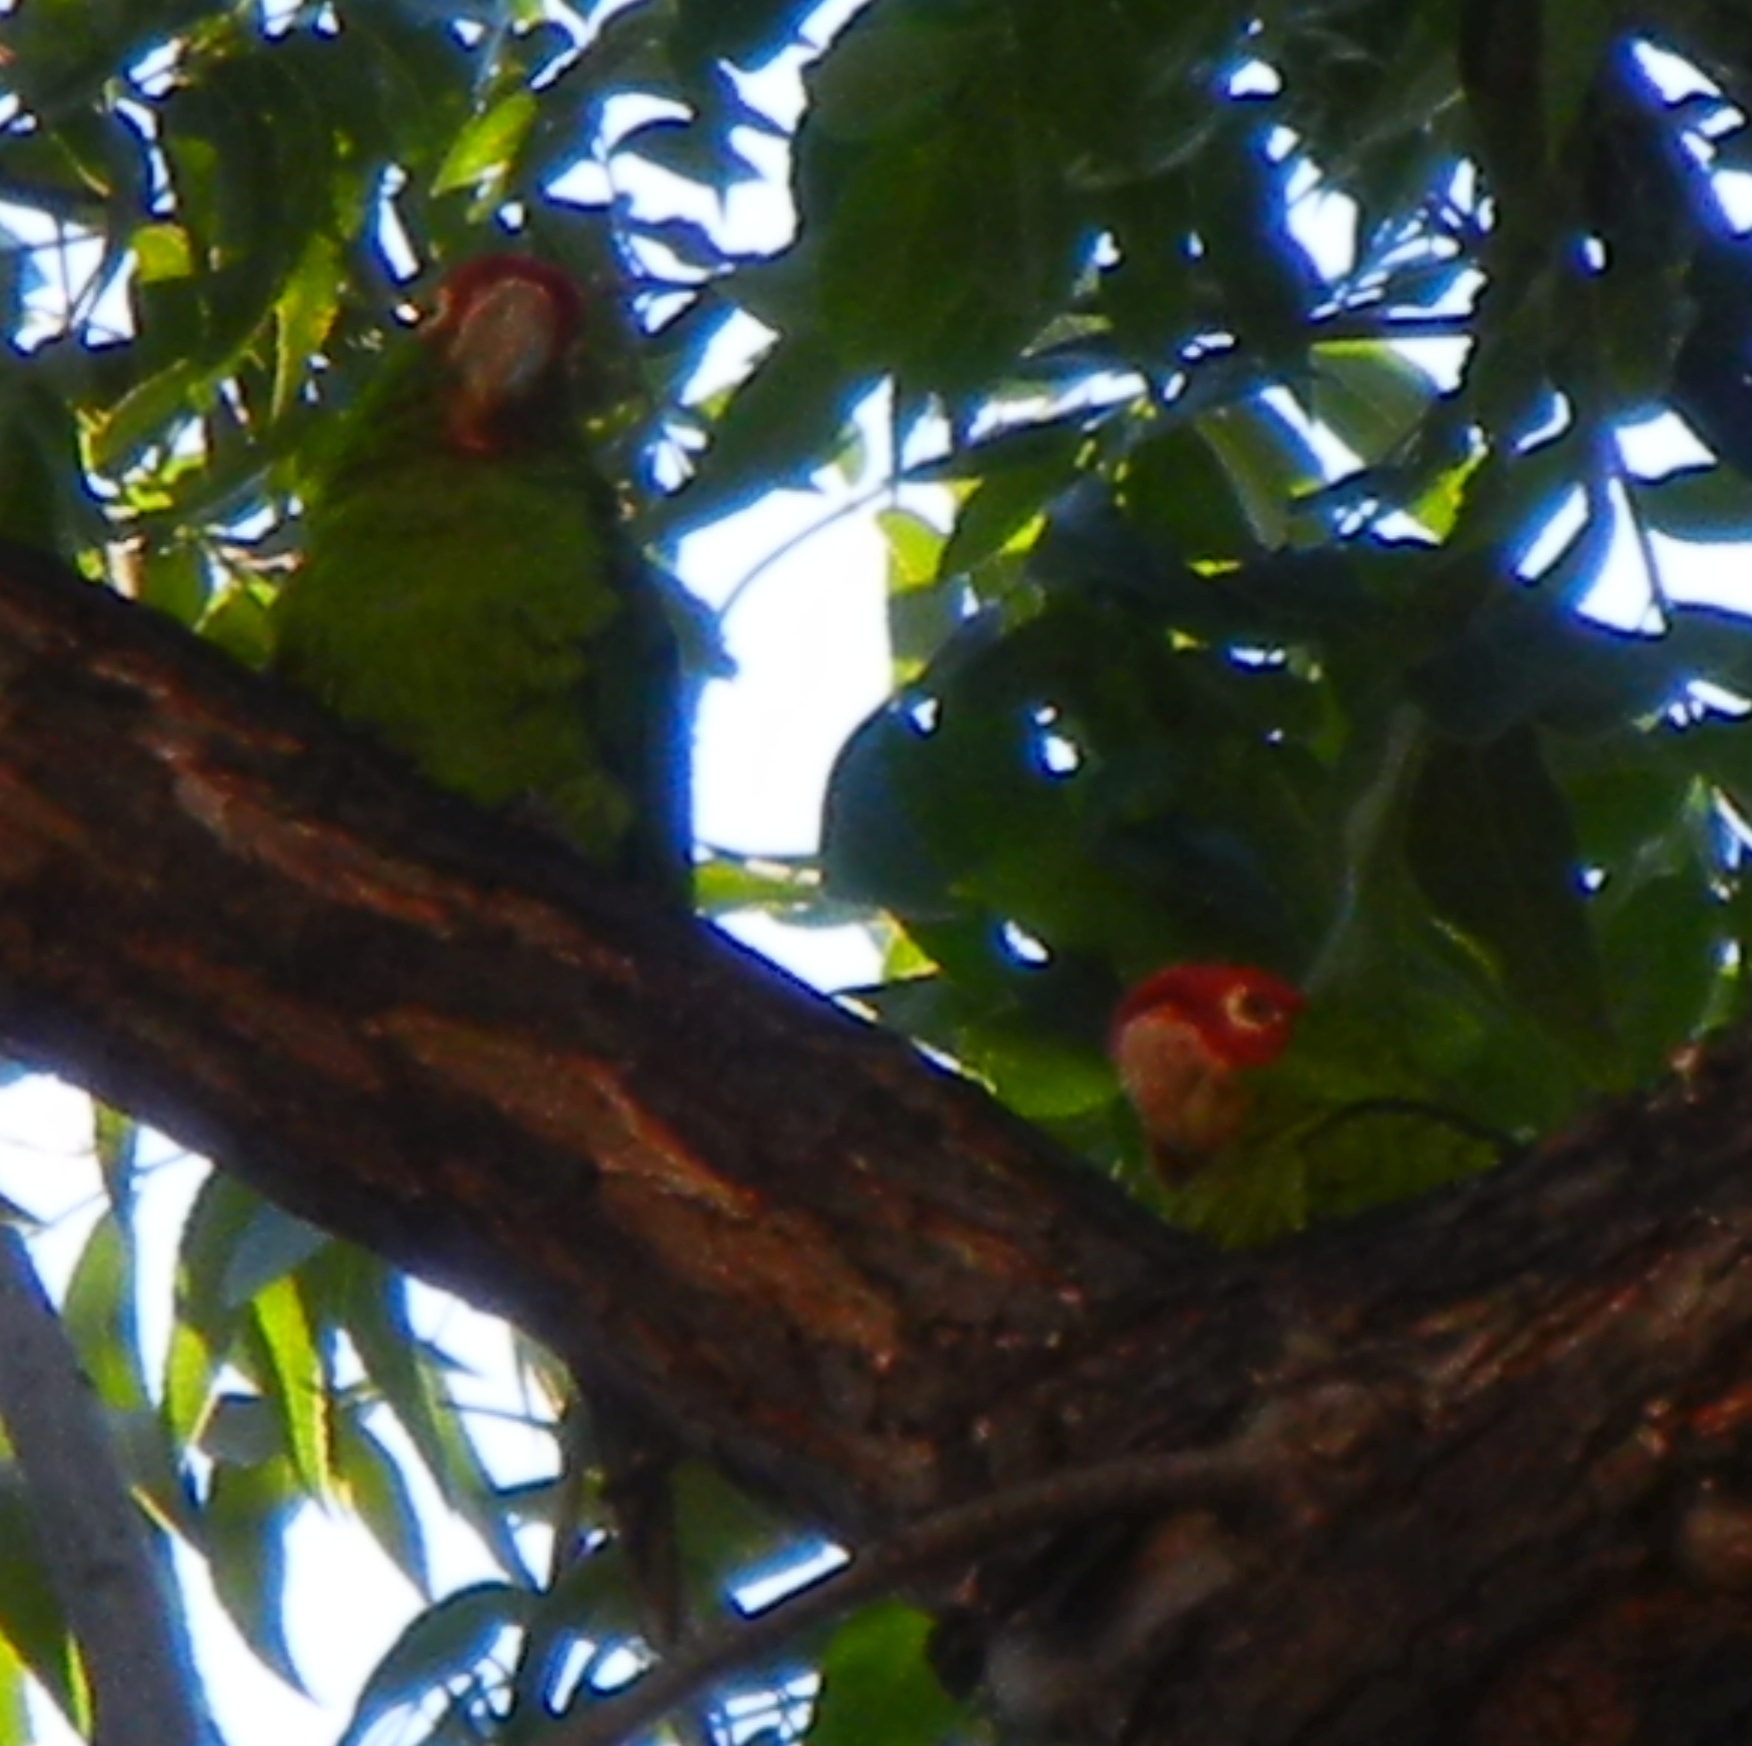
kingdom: Animalia
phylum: Chordata
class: Aves
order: Psittaciformes
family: Psittacidae
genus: Aratinga
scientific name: Aratinga erythrogenys
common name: Red-masked parakeet
